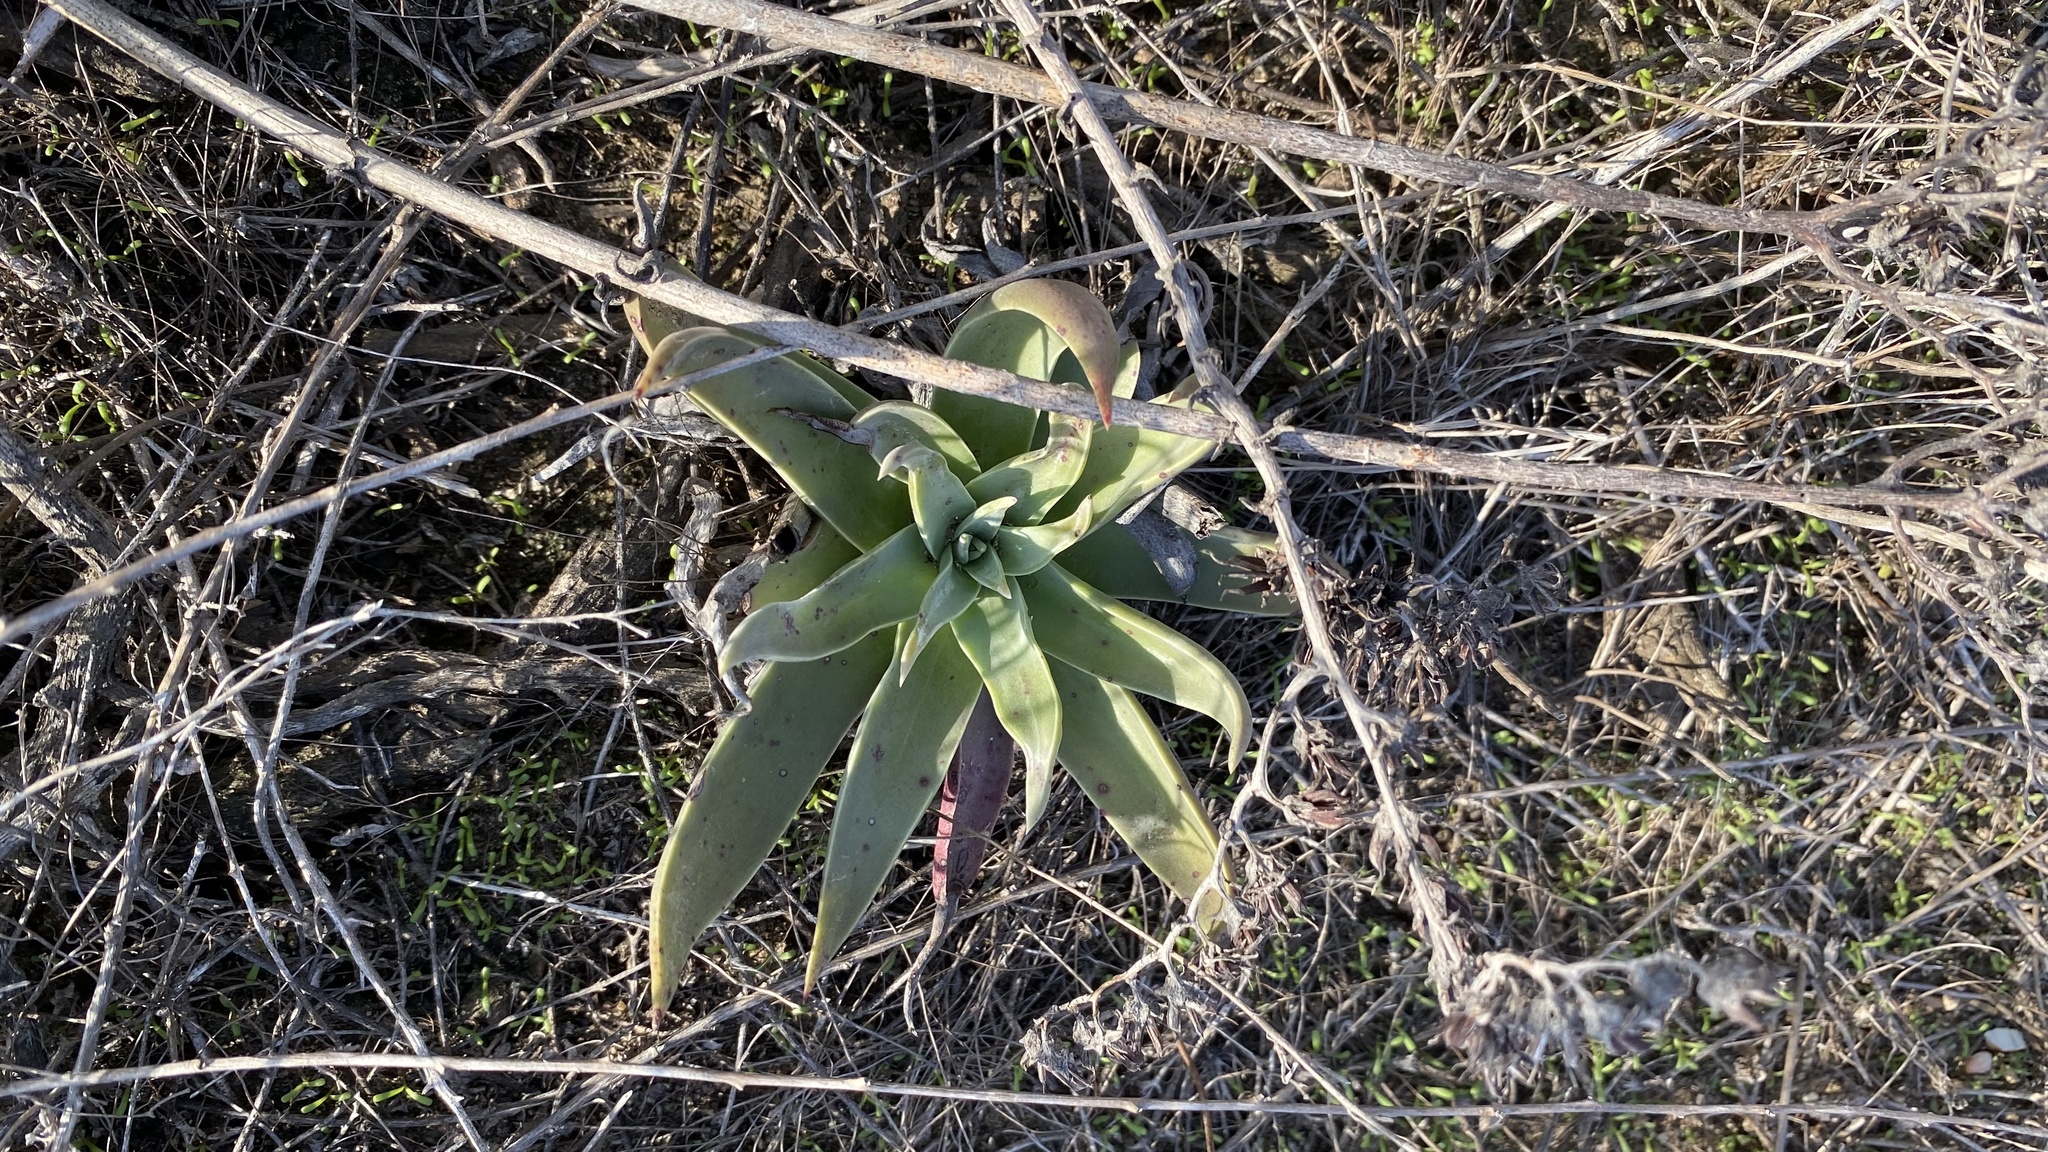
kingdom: Plantae
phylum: Tracheophyta
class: Magnoliopsida
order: Saxifragales
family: Crassulaceae
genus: Dudleya
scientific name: Dudleya lanceolata
